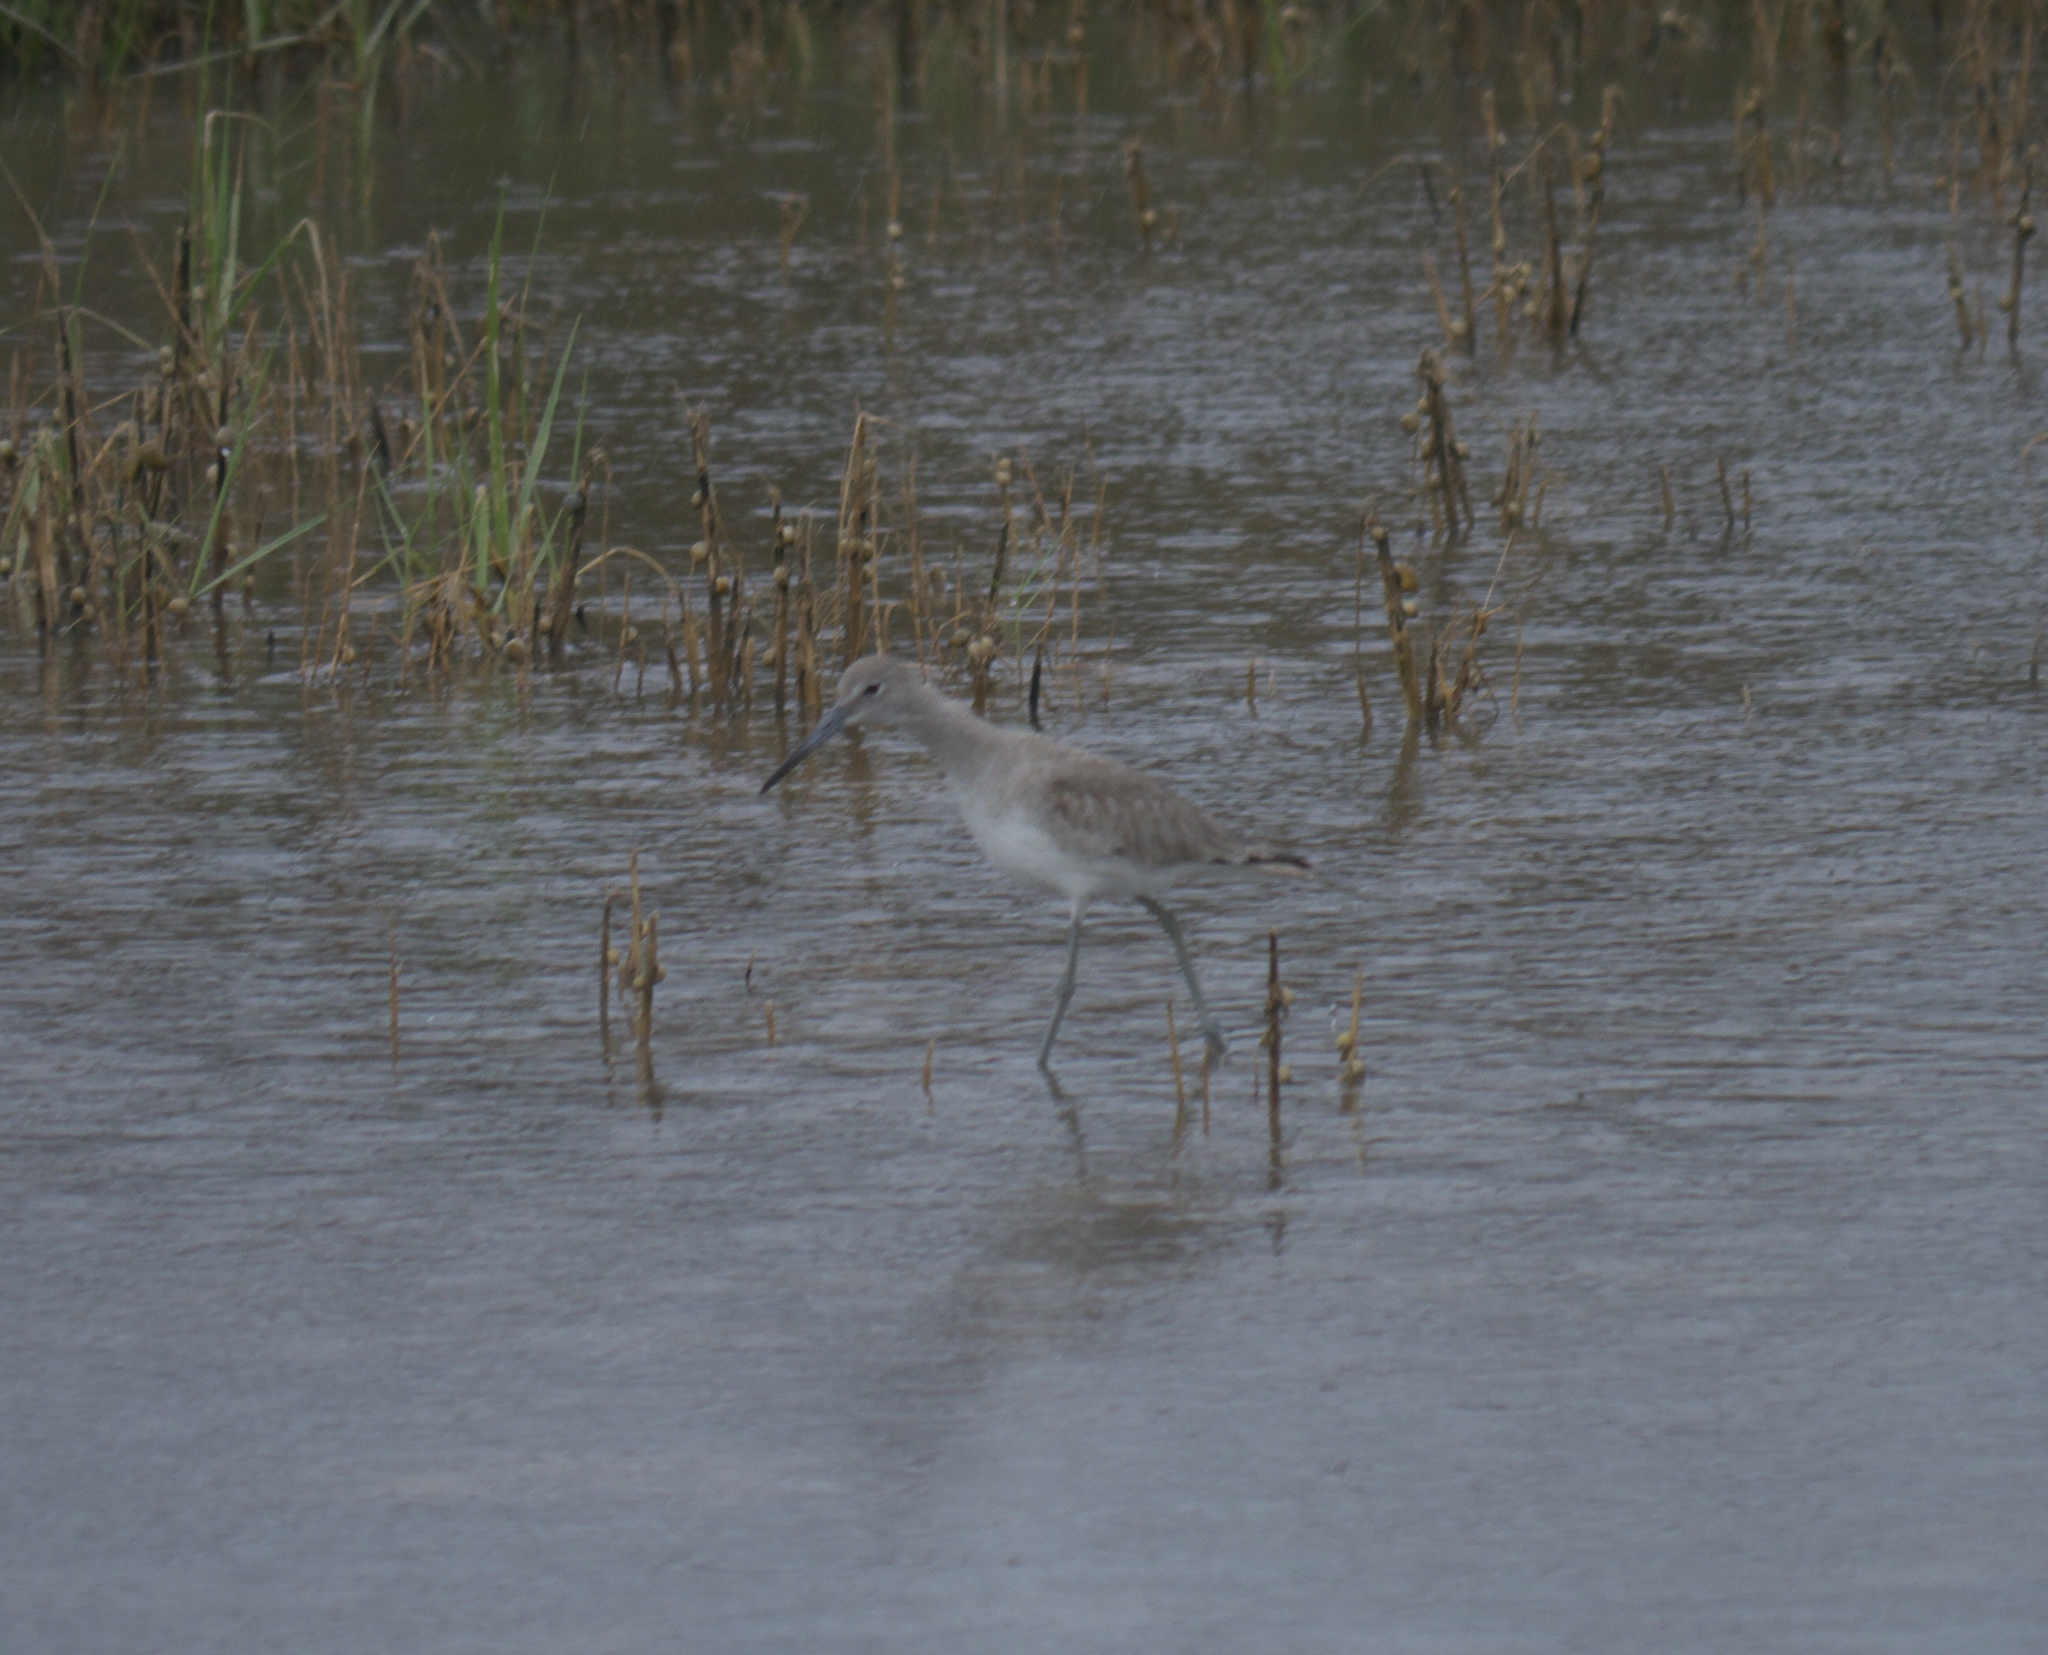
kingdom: Animalia
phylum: Chordata
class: Aves
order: Charadriiformes
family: Scolopacidae
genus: Tringa
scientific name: Tringa semipalmata
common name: Willet
